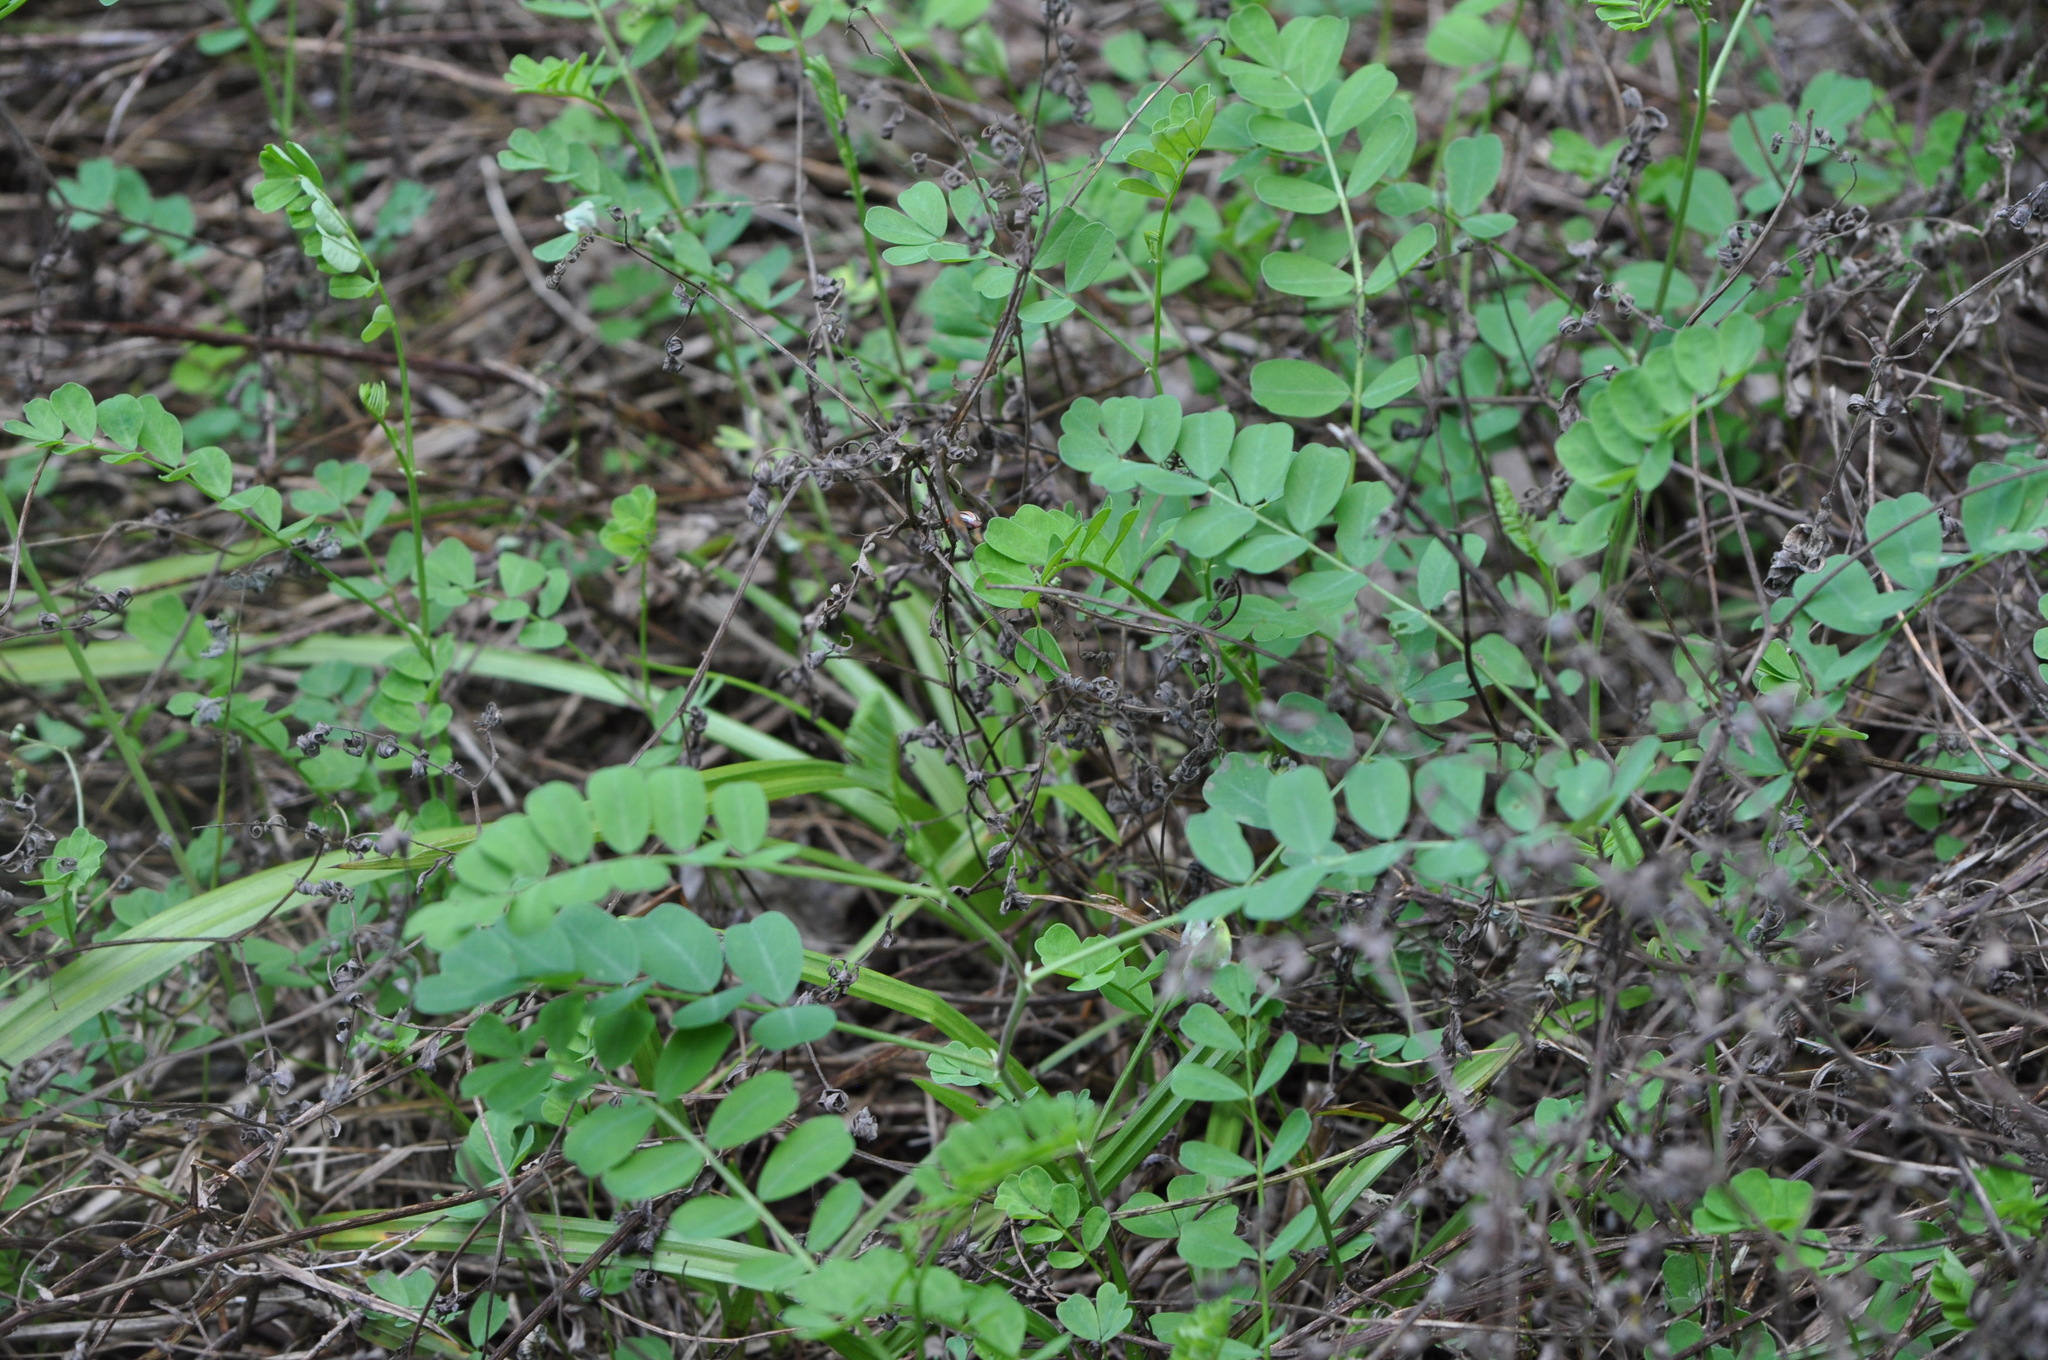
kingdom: Plantae
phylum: Tracheophyta
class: Magnoliopsida
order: Fabales
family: Fabaceae
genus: Coronilla
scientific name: Coronilla varia
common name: Crownvetch
